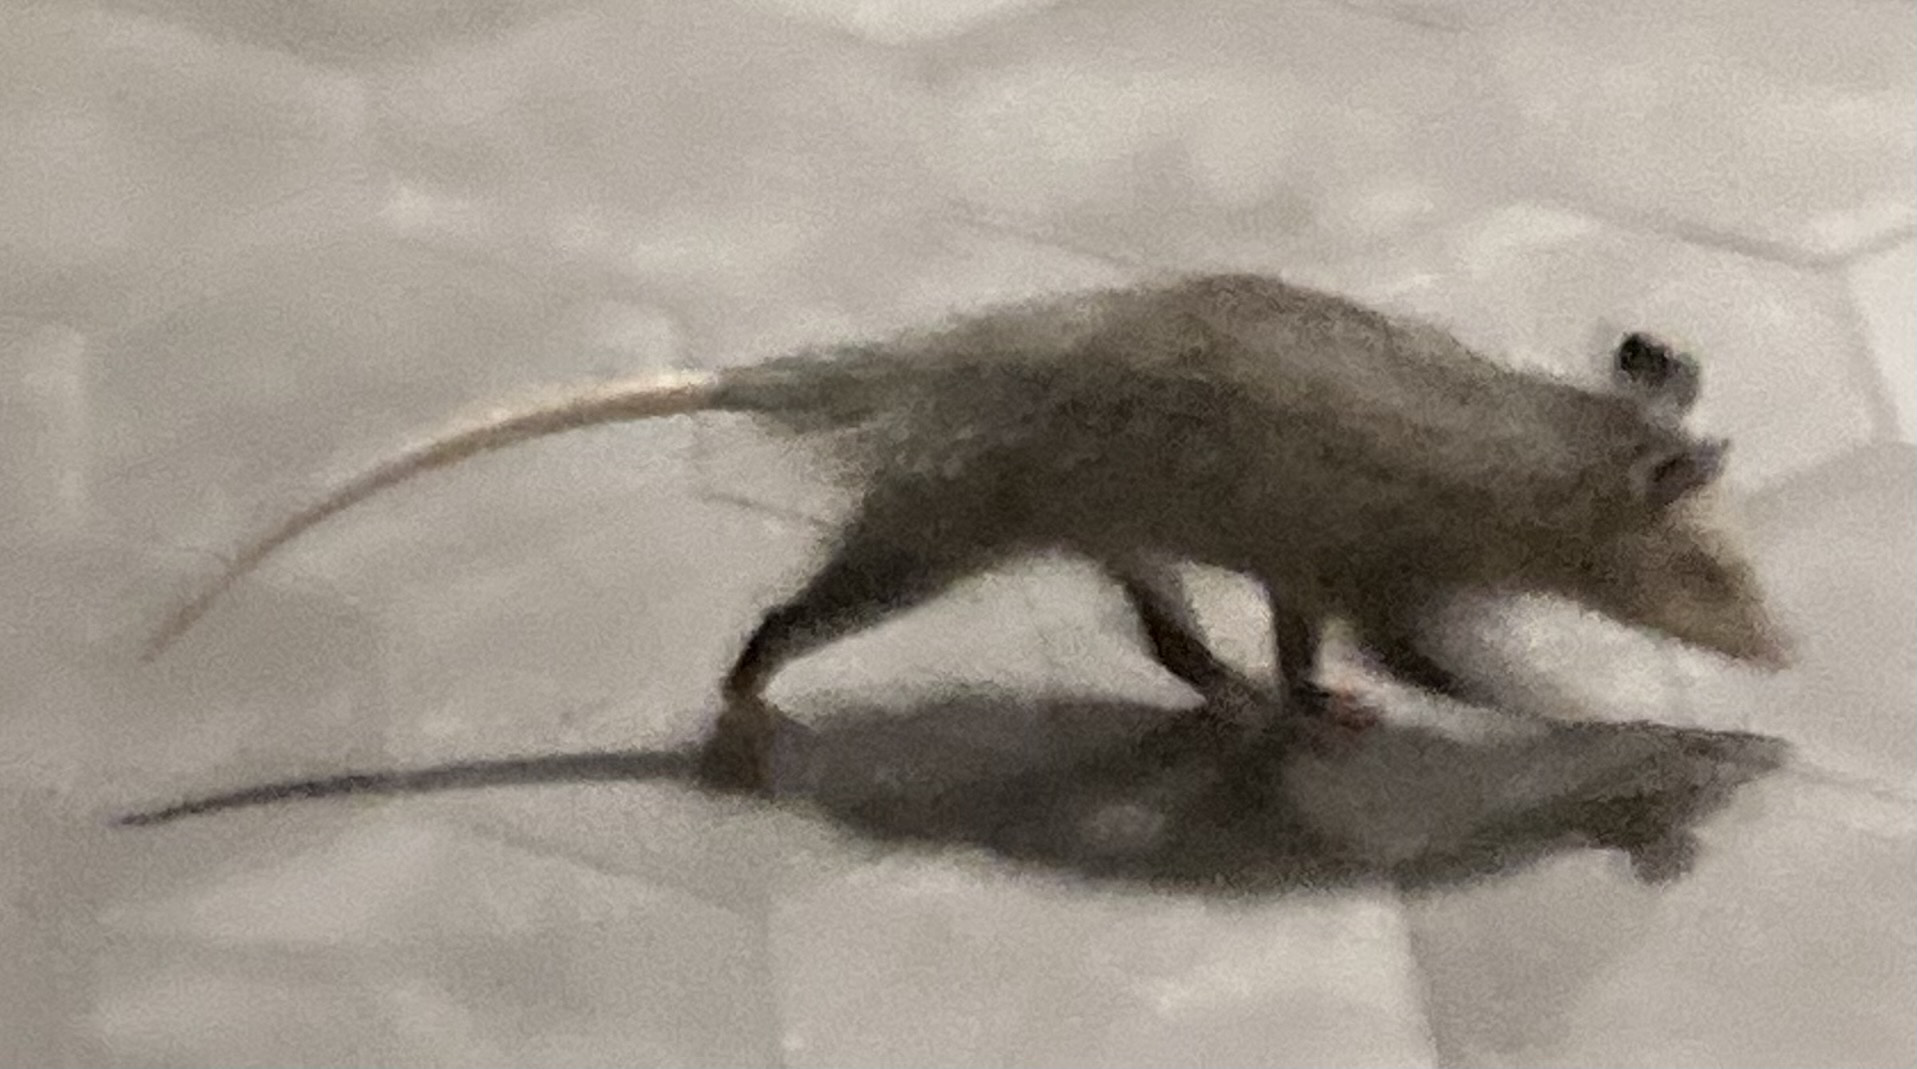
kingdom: Animalia
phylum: Chordata
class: Mammalia
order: Didelphimorphia
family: Didelphidae
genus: Didelphis
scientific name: Didelphis virginiana
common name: Virginia opossum
